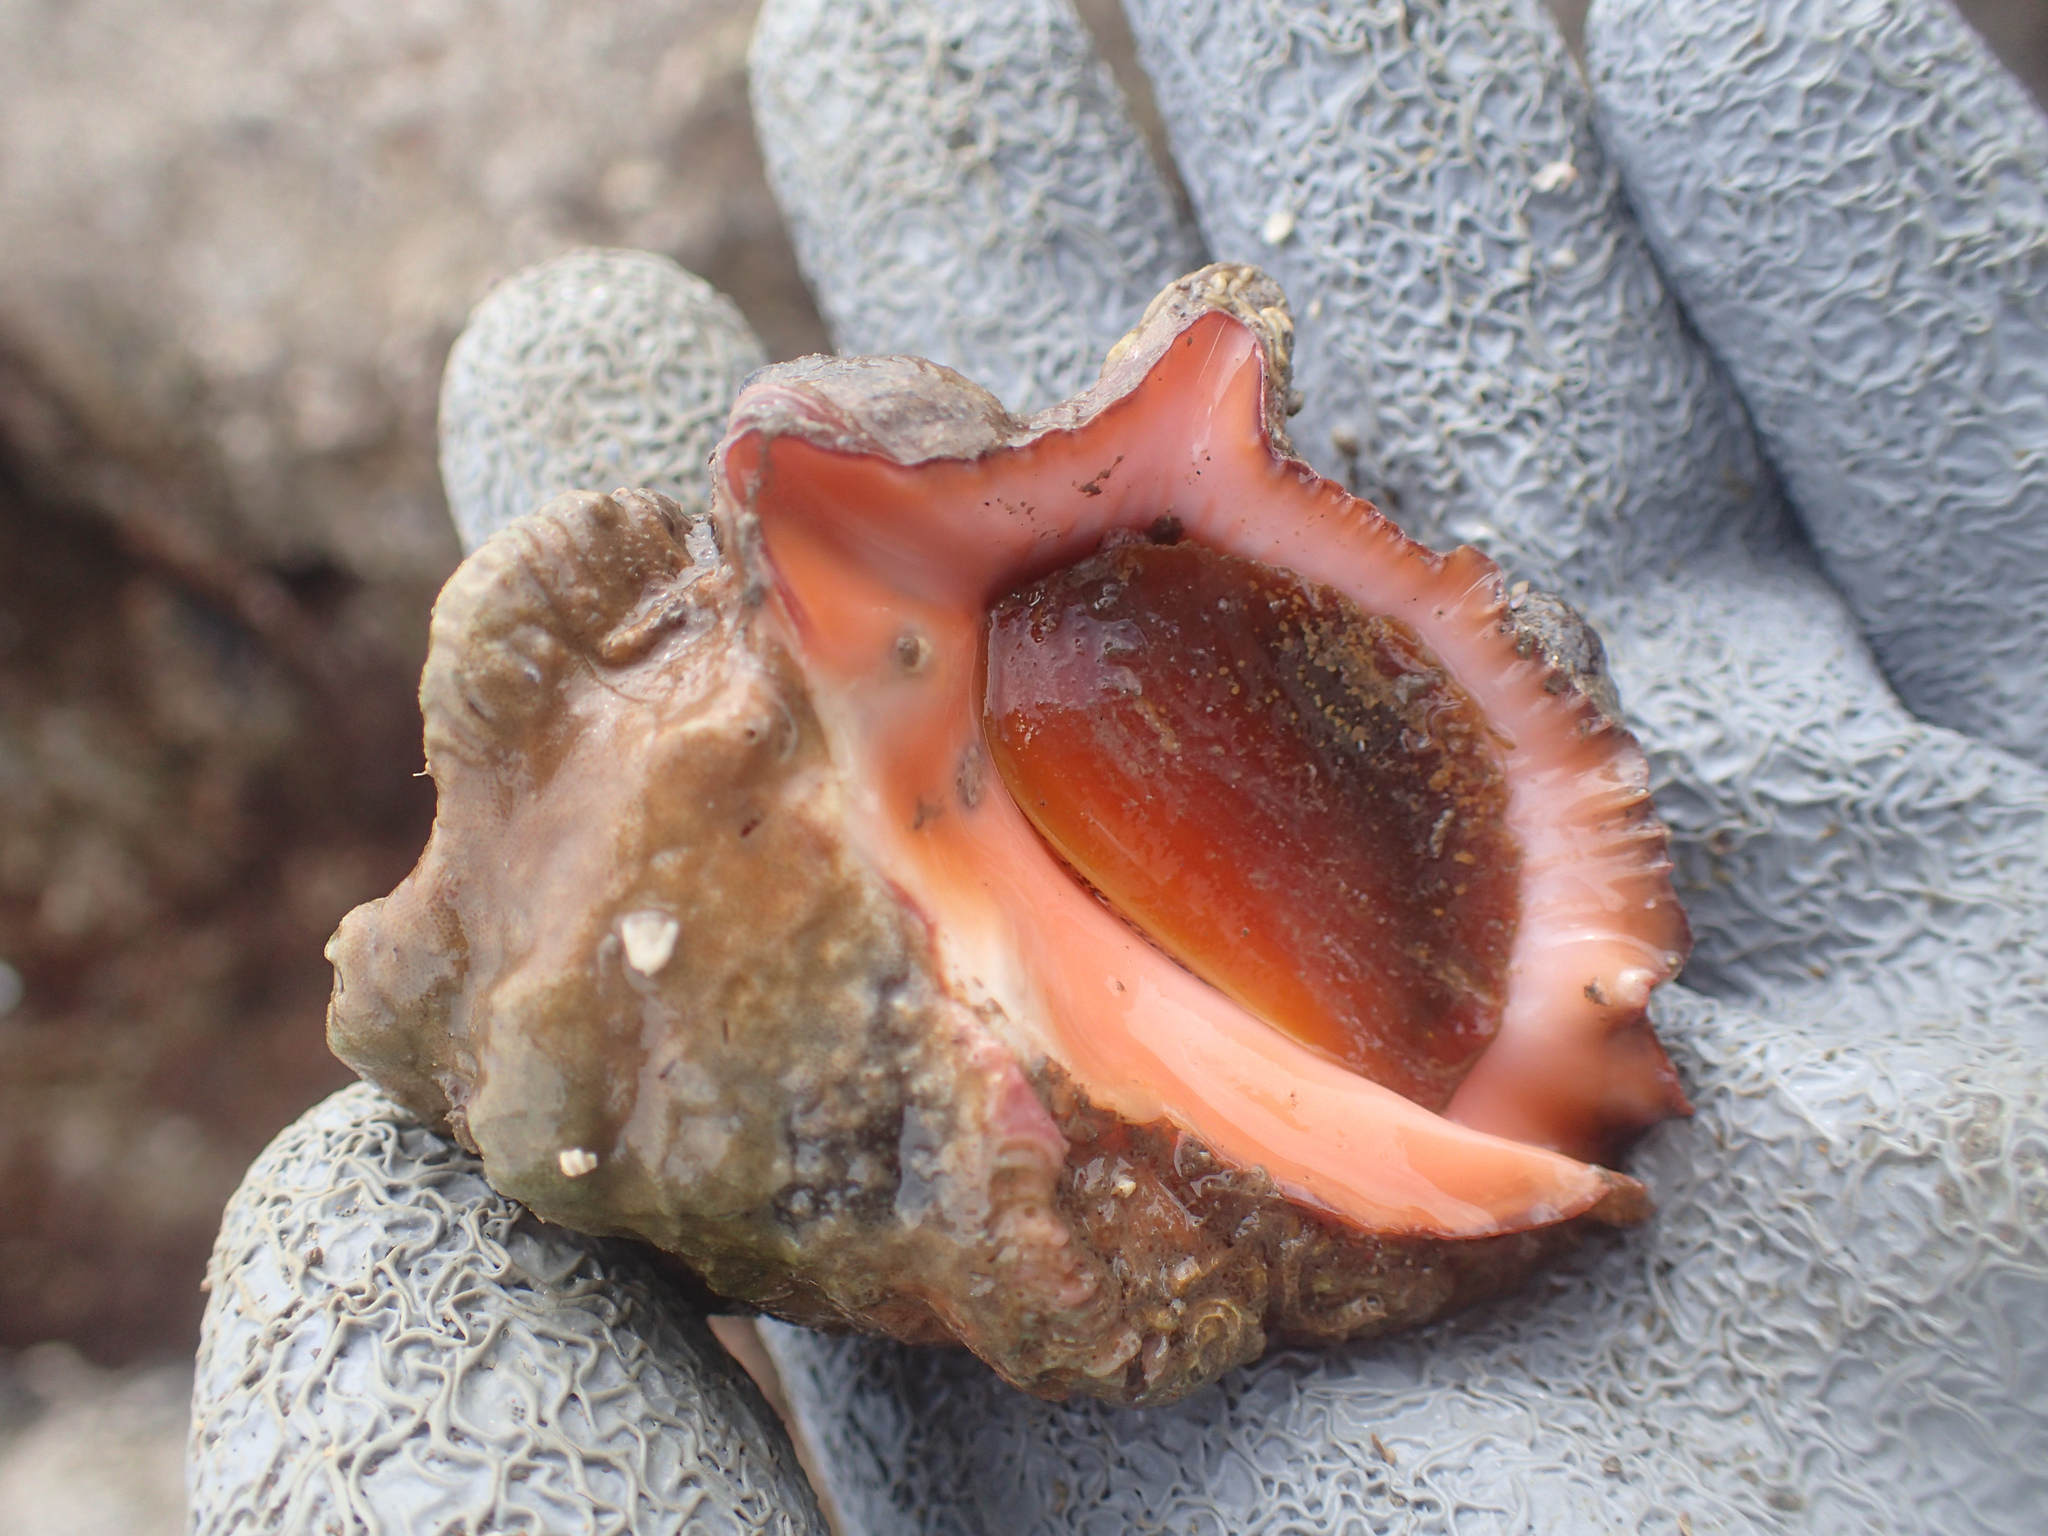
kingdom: Animalia
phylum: Mollusca
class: Gastropoda
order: Neogastropoda
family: Muricidae
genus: Neorapana
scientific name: Neorapana muricata
